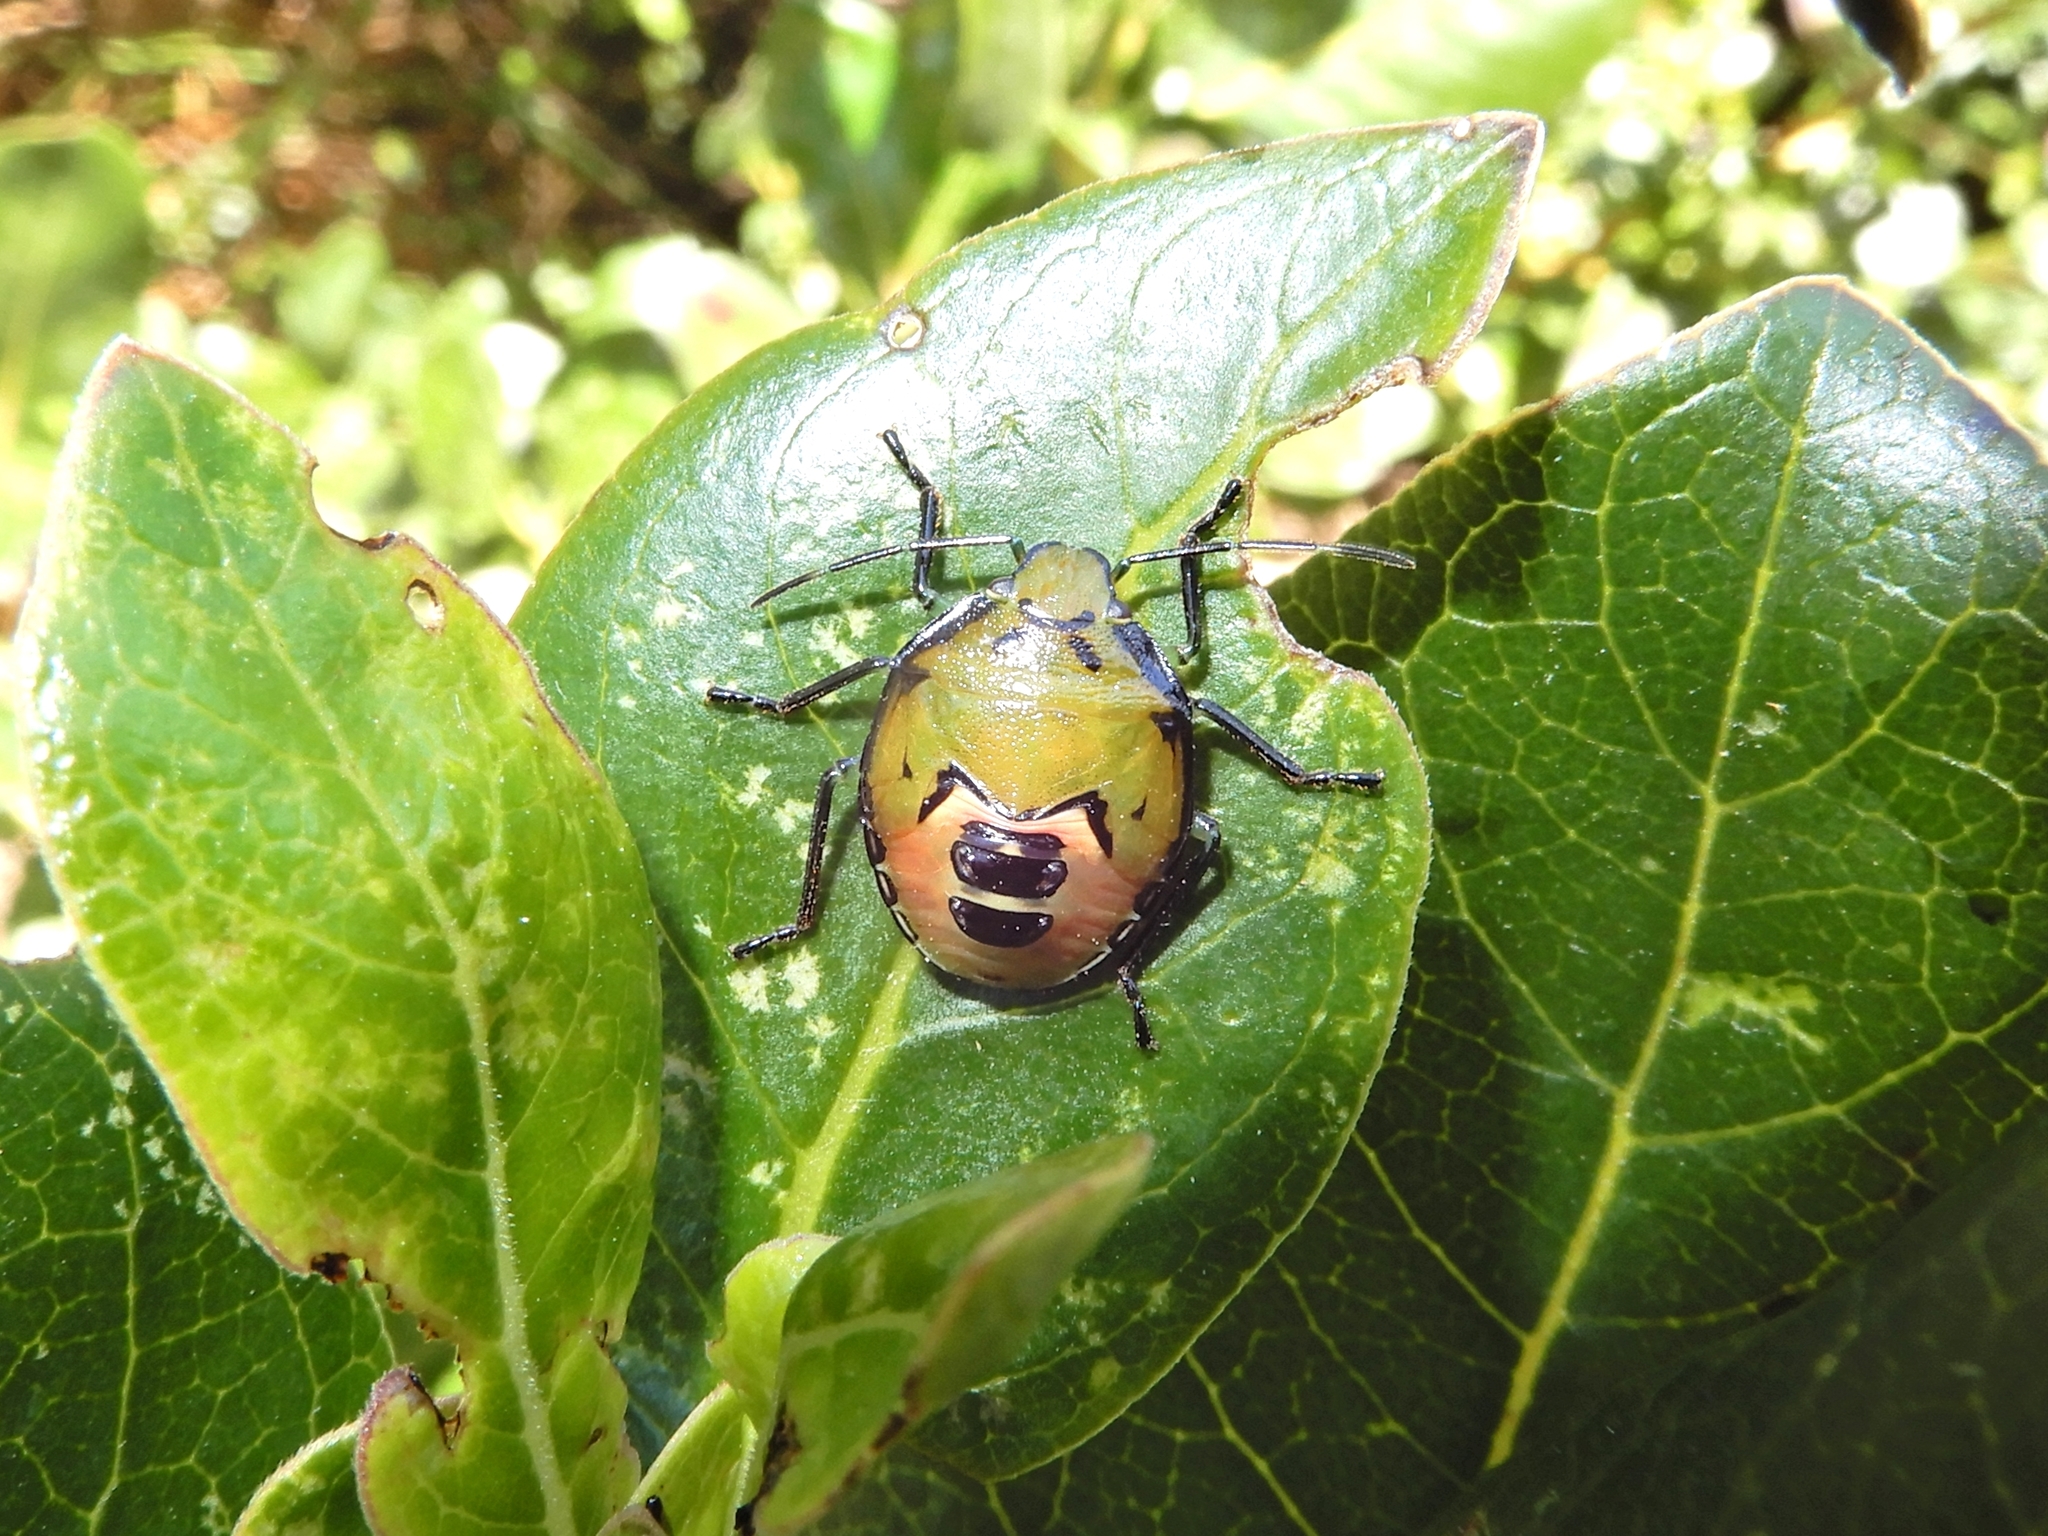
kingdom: Animalia
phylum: Arthropoda
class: Insecta
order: Hemiptera
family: Pentatomidae
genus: Glaucias
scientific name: Glaucias amyota
